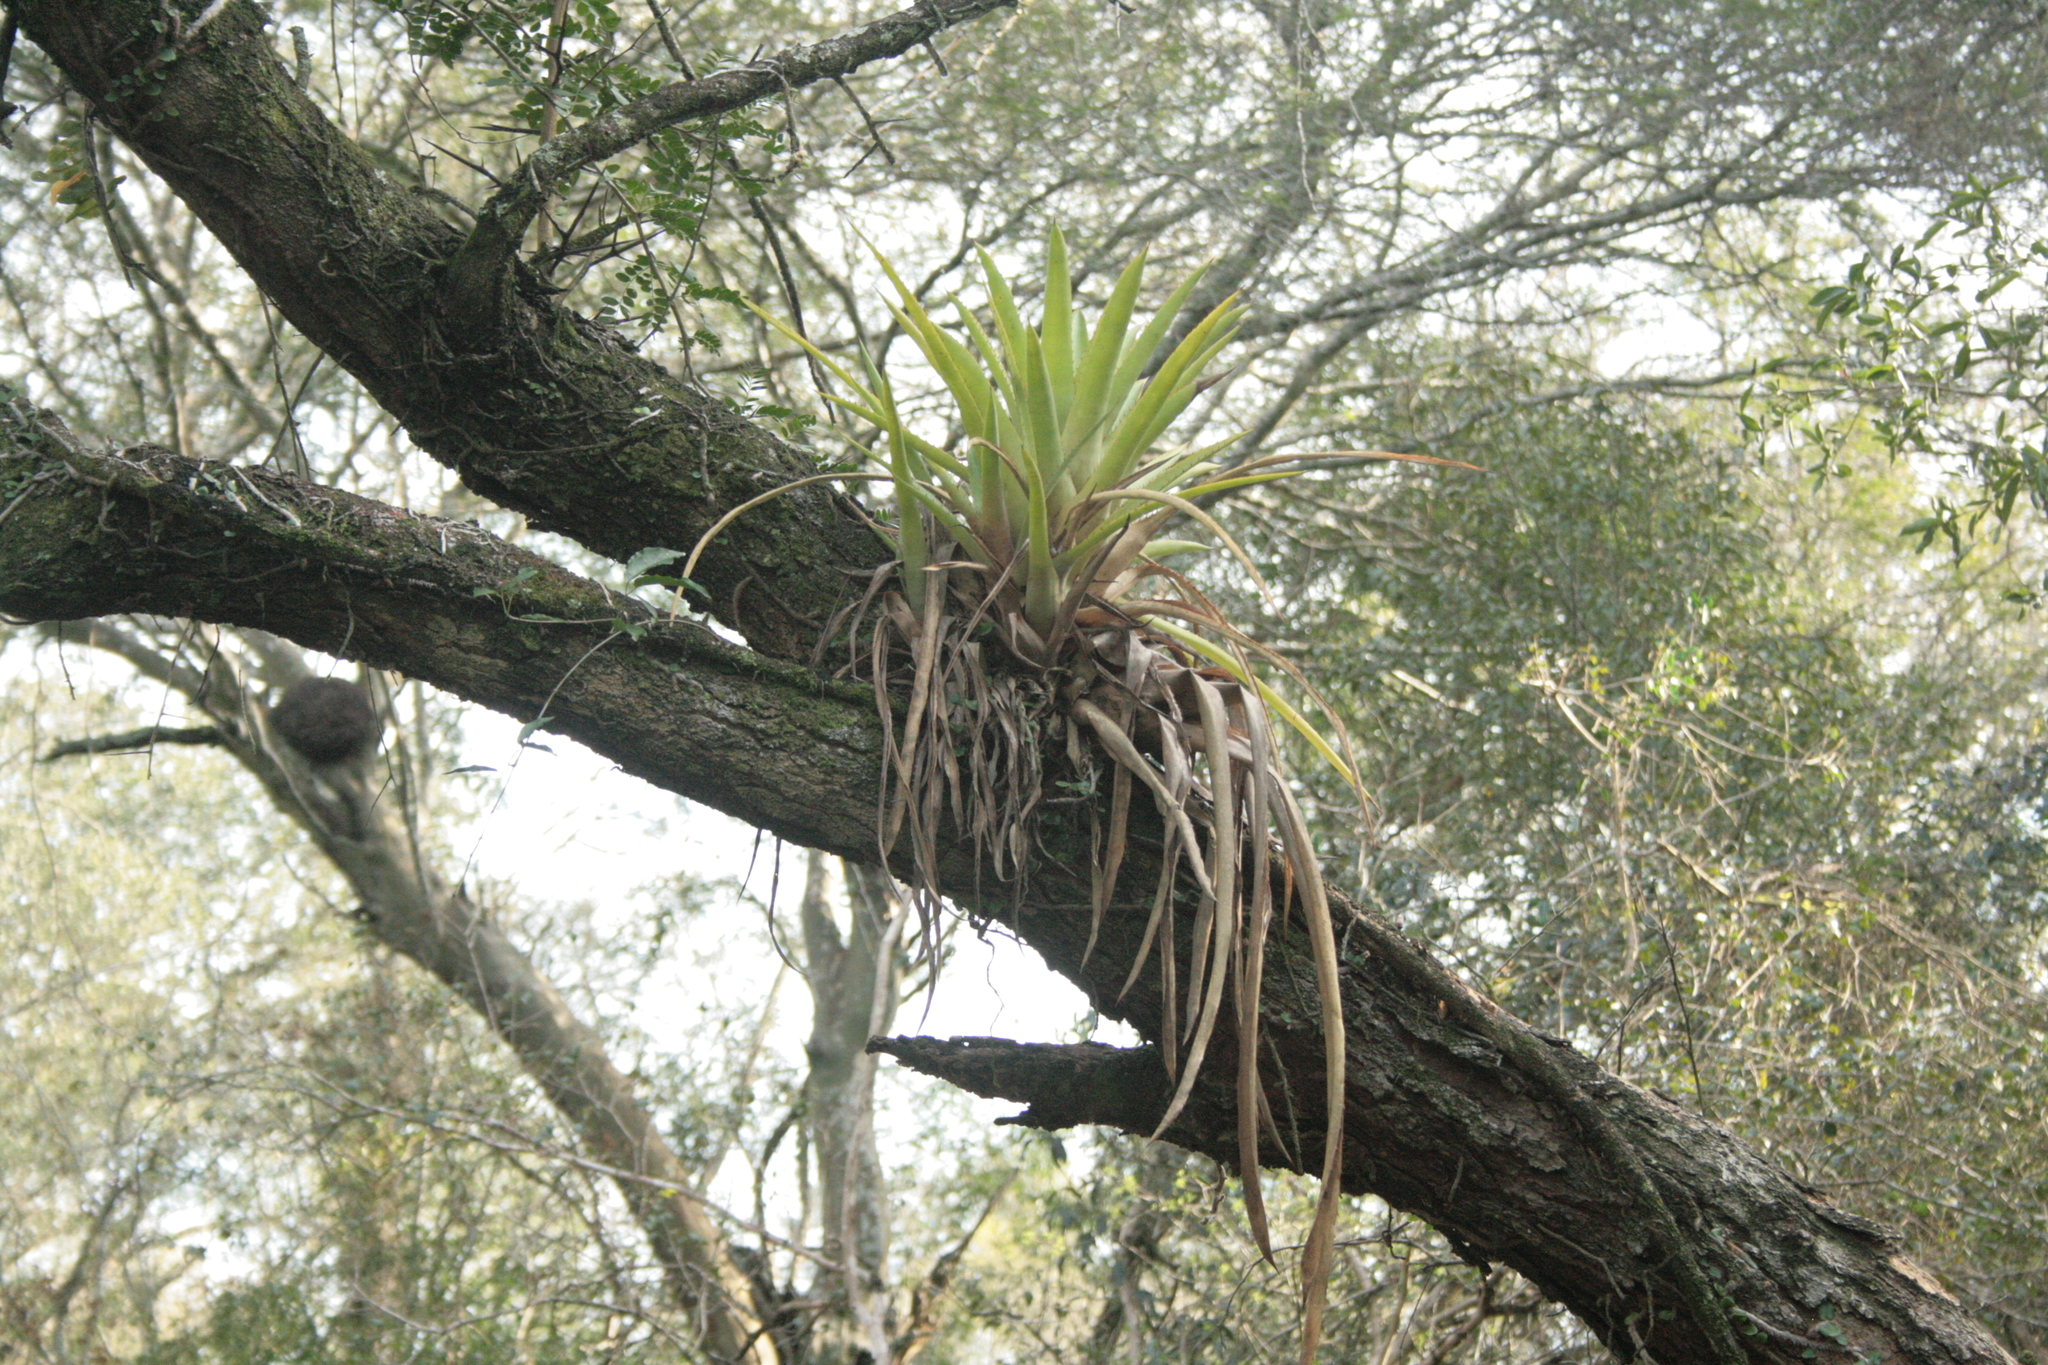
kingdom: Plantae
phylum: Tracheophyta
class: Liliopsida
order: Poales
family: Bromeliaceae
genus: Aechmea
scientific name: Aechmea distichantha
